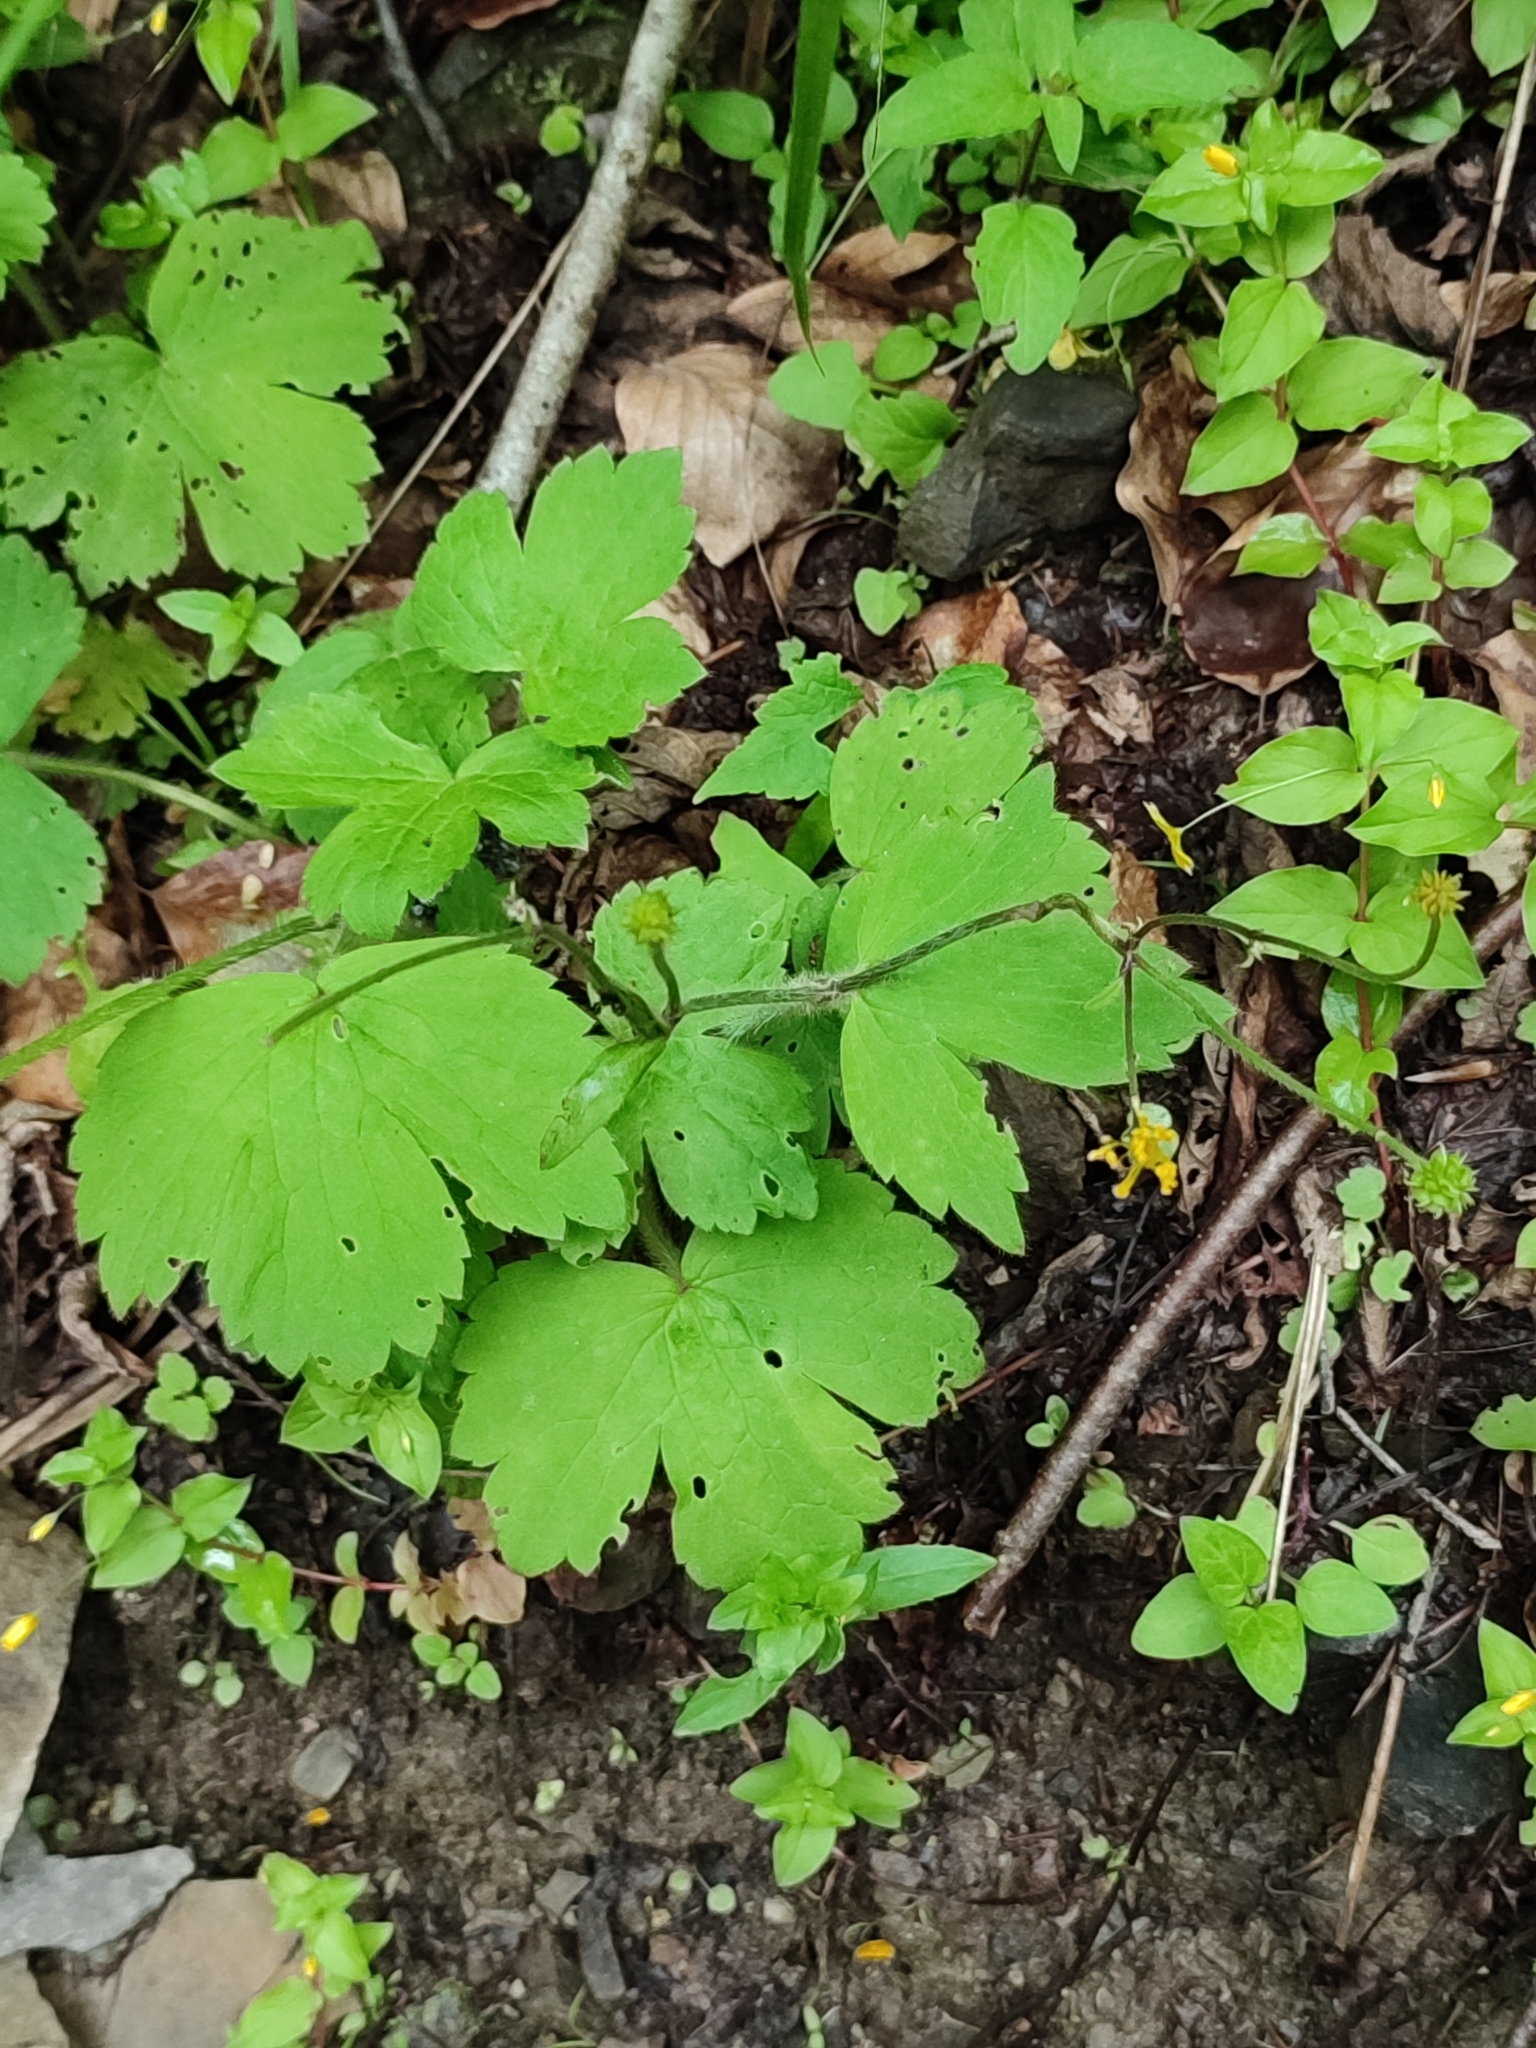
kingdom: Plantae
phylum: Tracheophyta
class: Magnoliopsida
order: Ranunculales
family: Ranunculaceae
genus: Ranunculus
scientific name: Ranunculus lanuginosus
